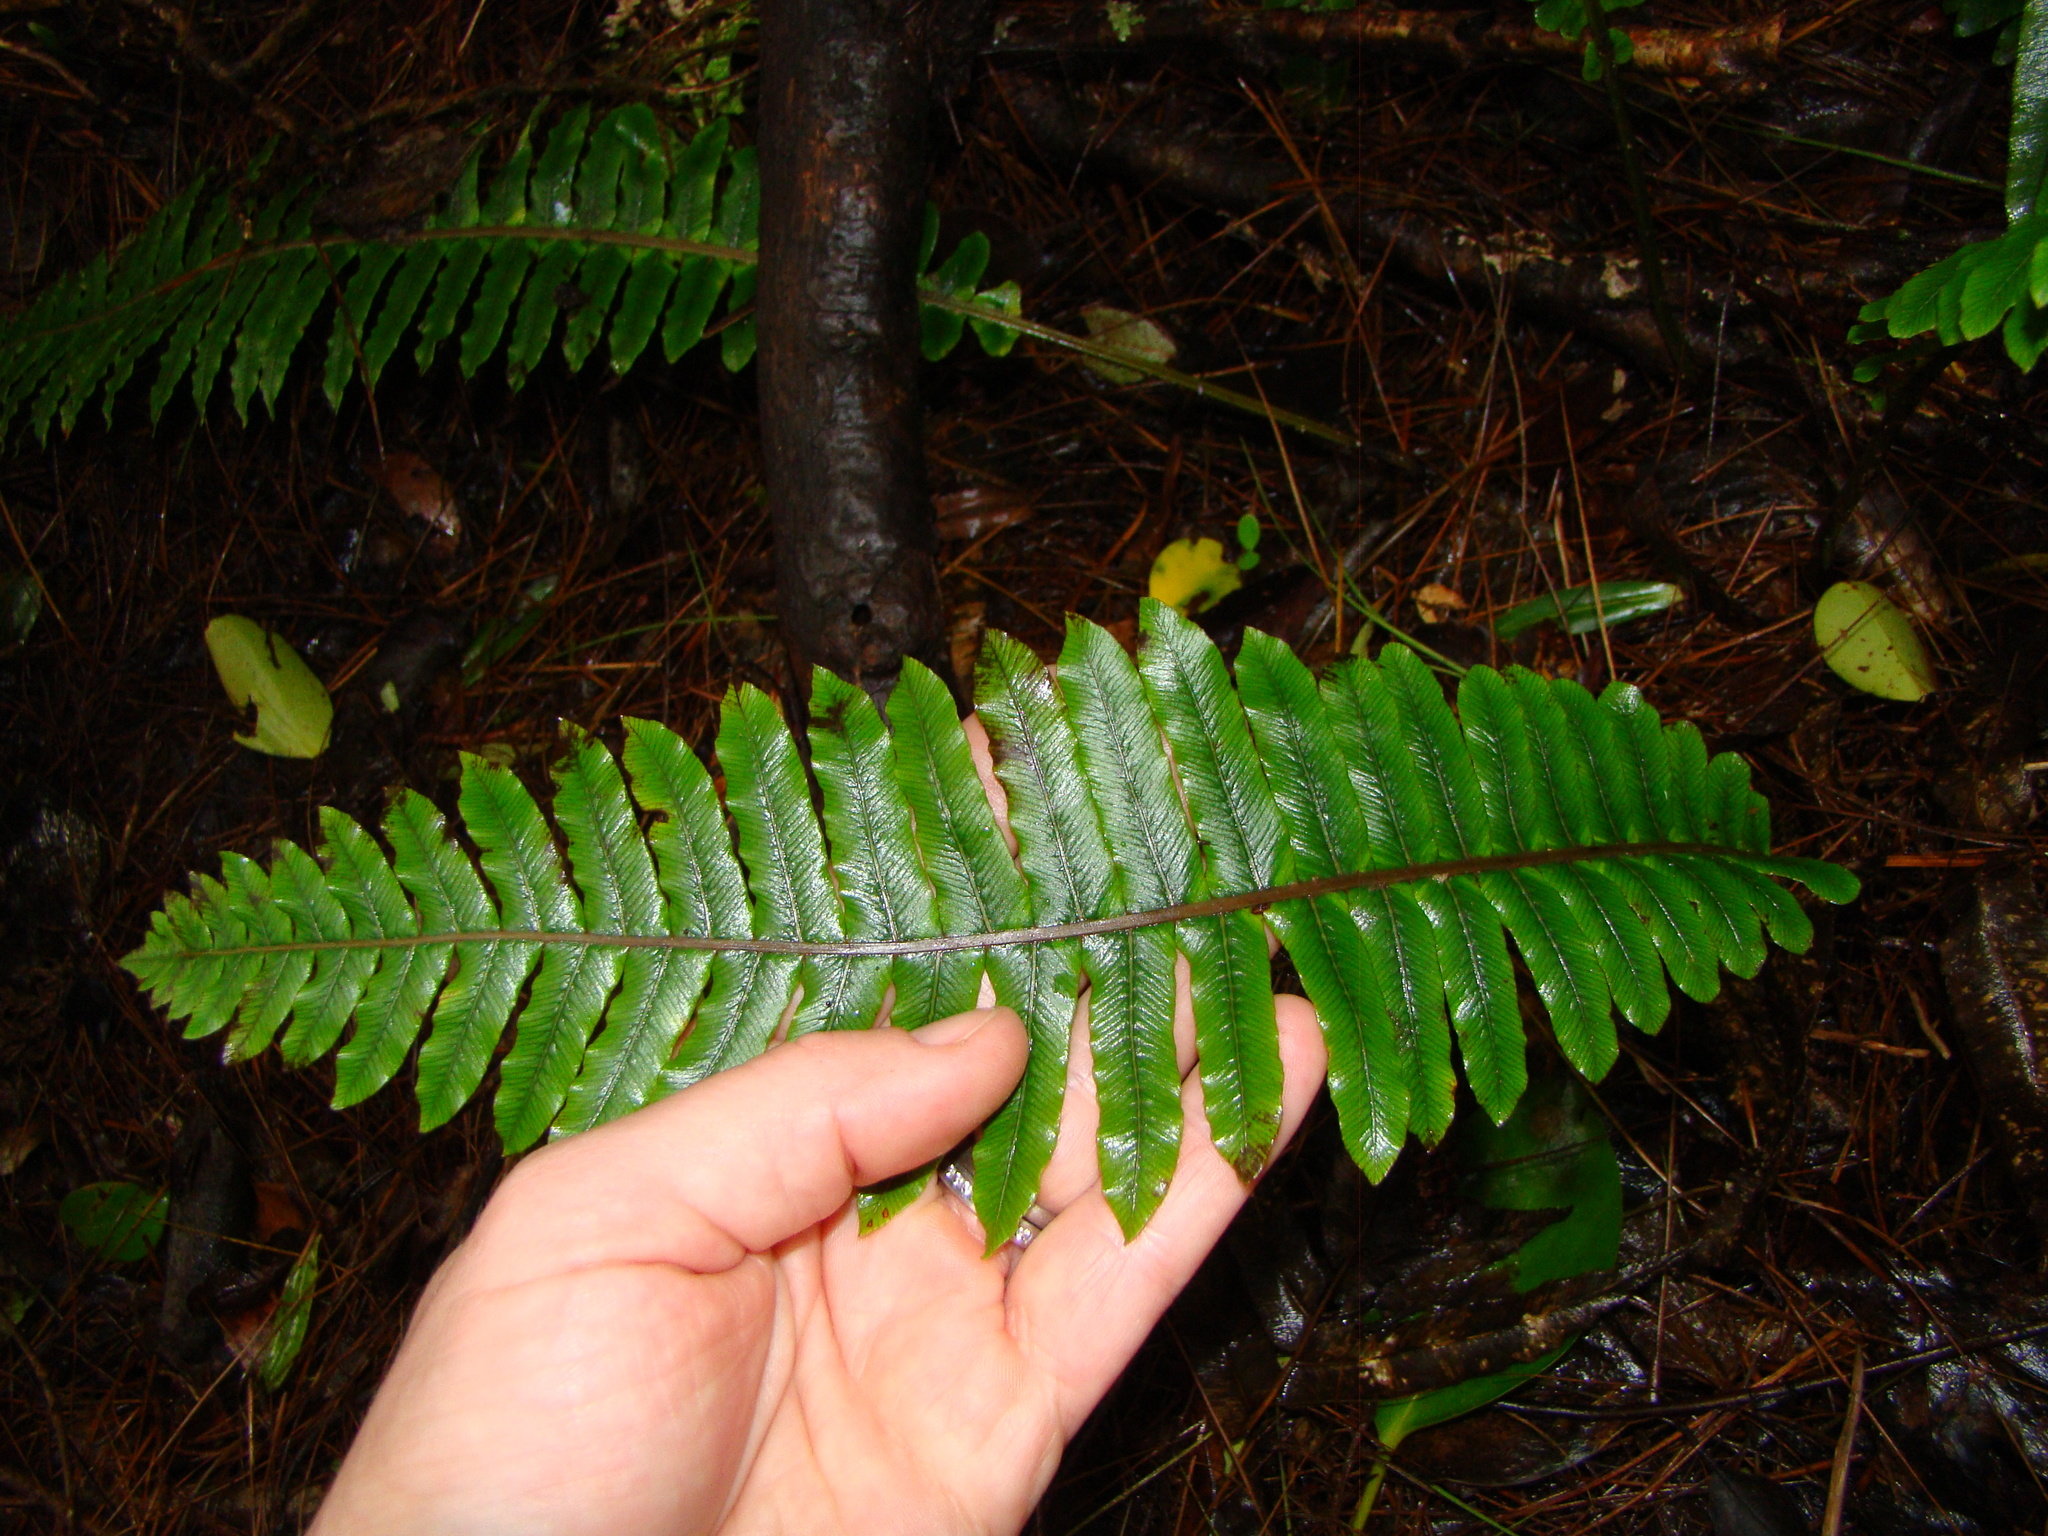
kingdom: Plantae
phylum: Tracheophyta
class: Polypodiopsida
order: Polypodiales
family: Blechnaceae
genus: Lomaria
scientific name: Lomaria discolor
